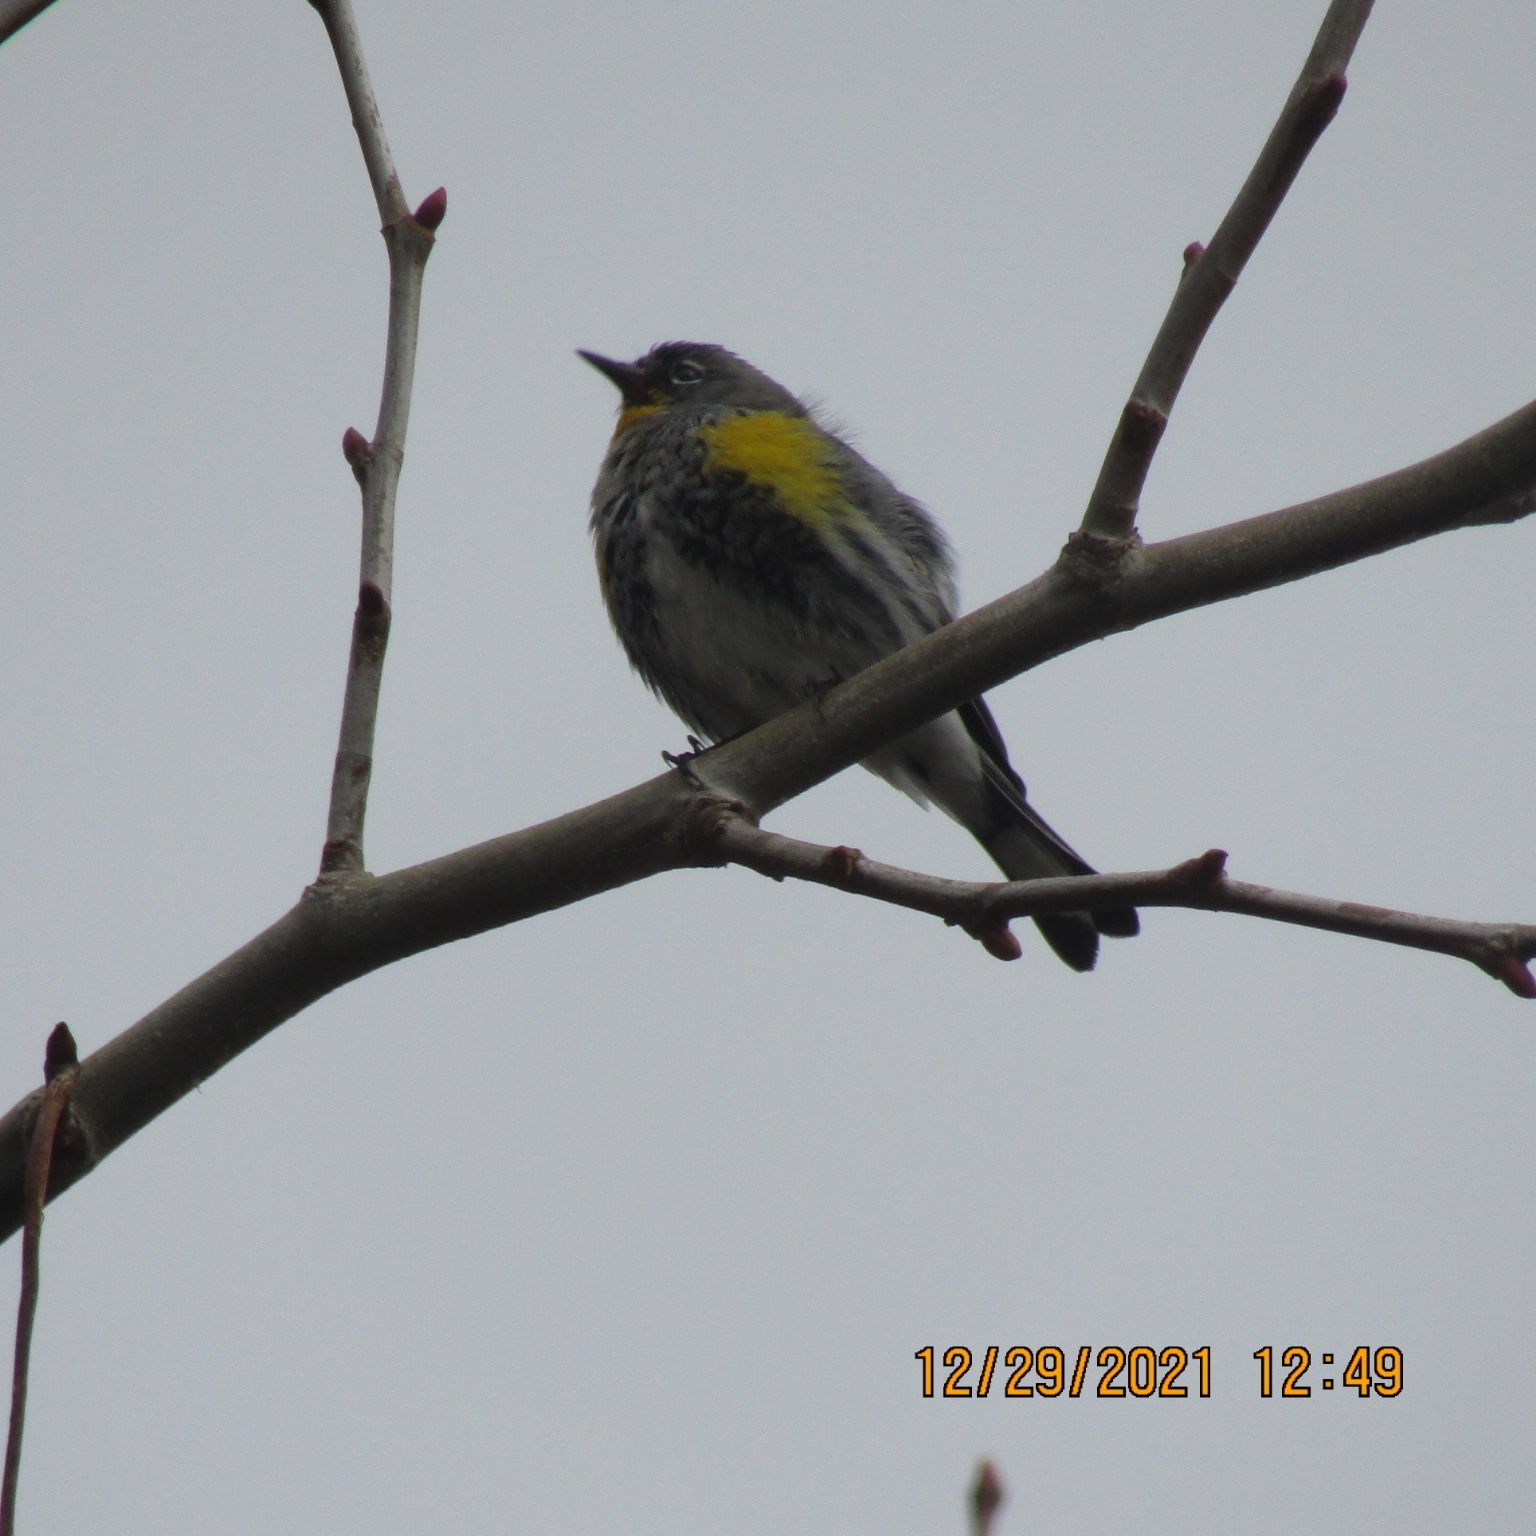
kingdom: Animalia
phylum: Chordata
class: Aves
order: Passeriformes
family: Parulidae
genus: Setophaga
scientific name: Setophaga auduboni
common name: Audubon's warbler
